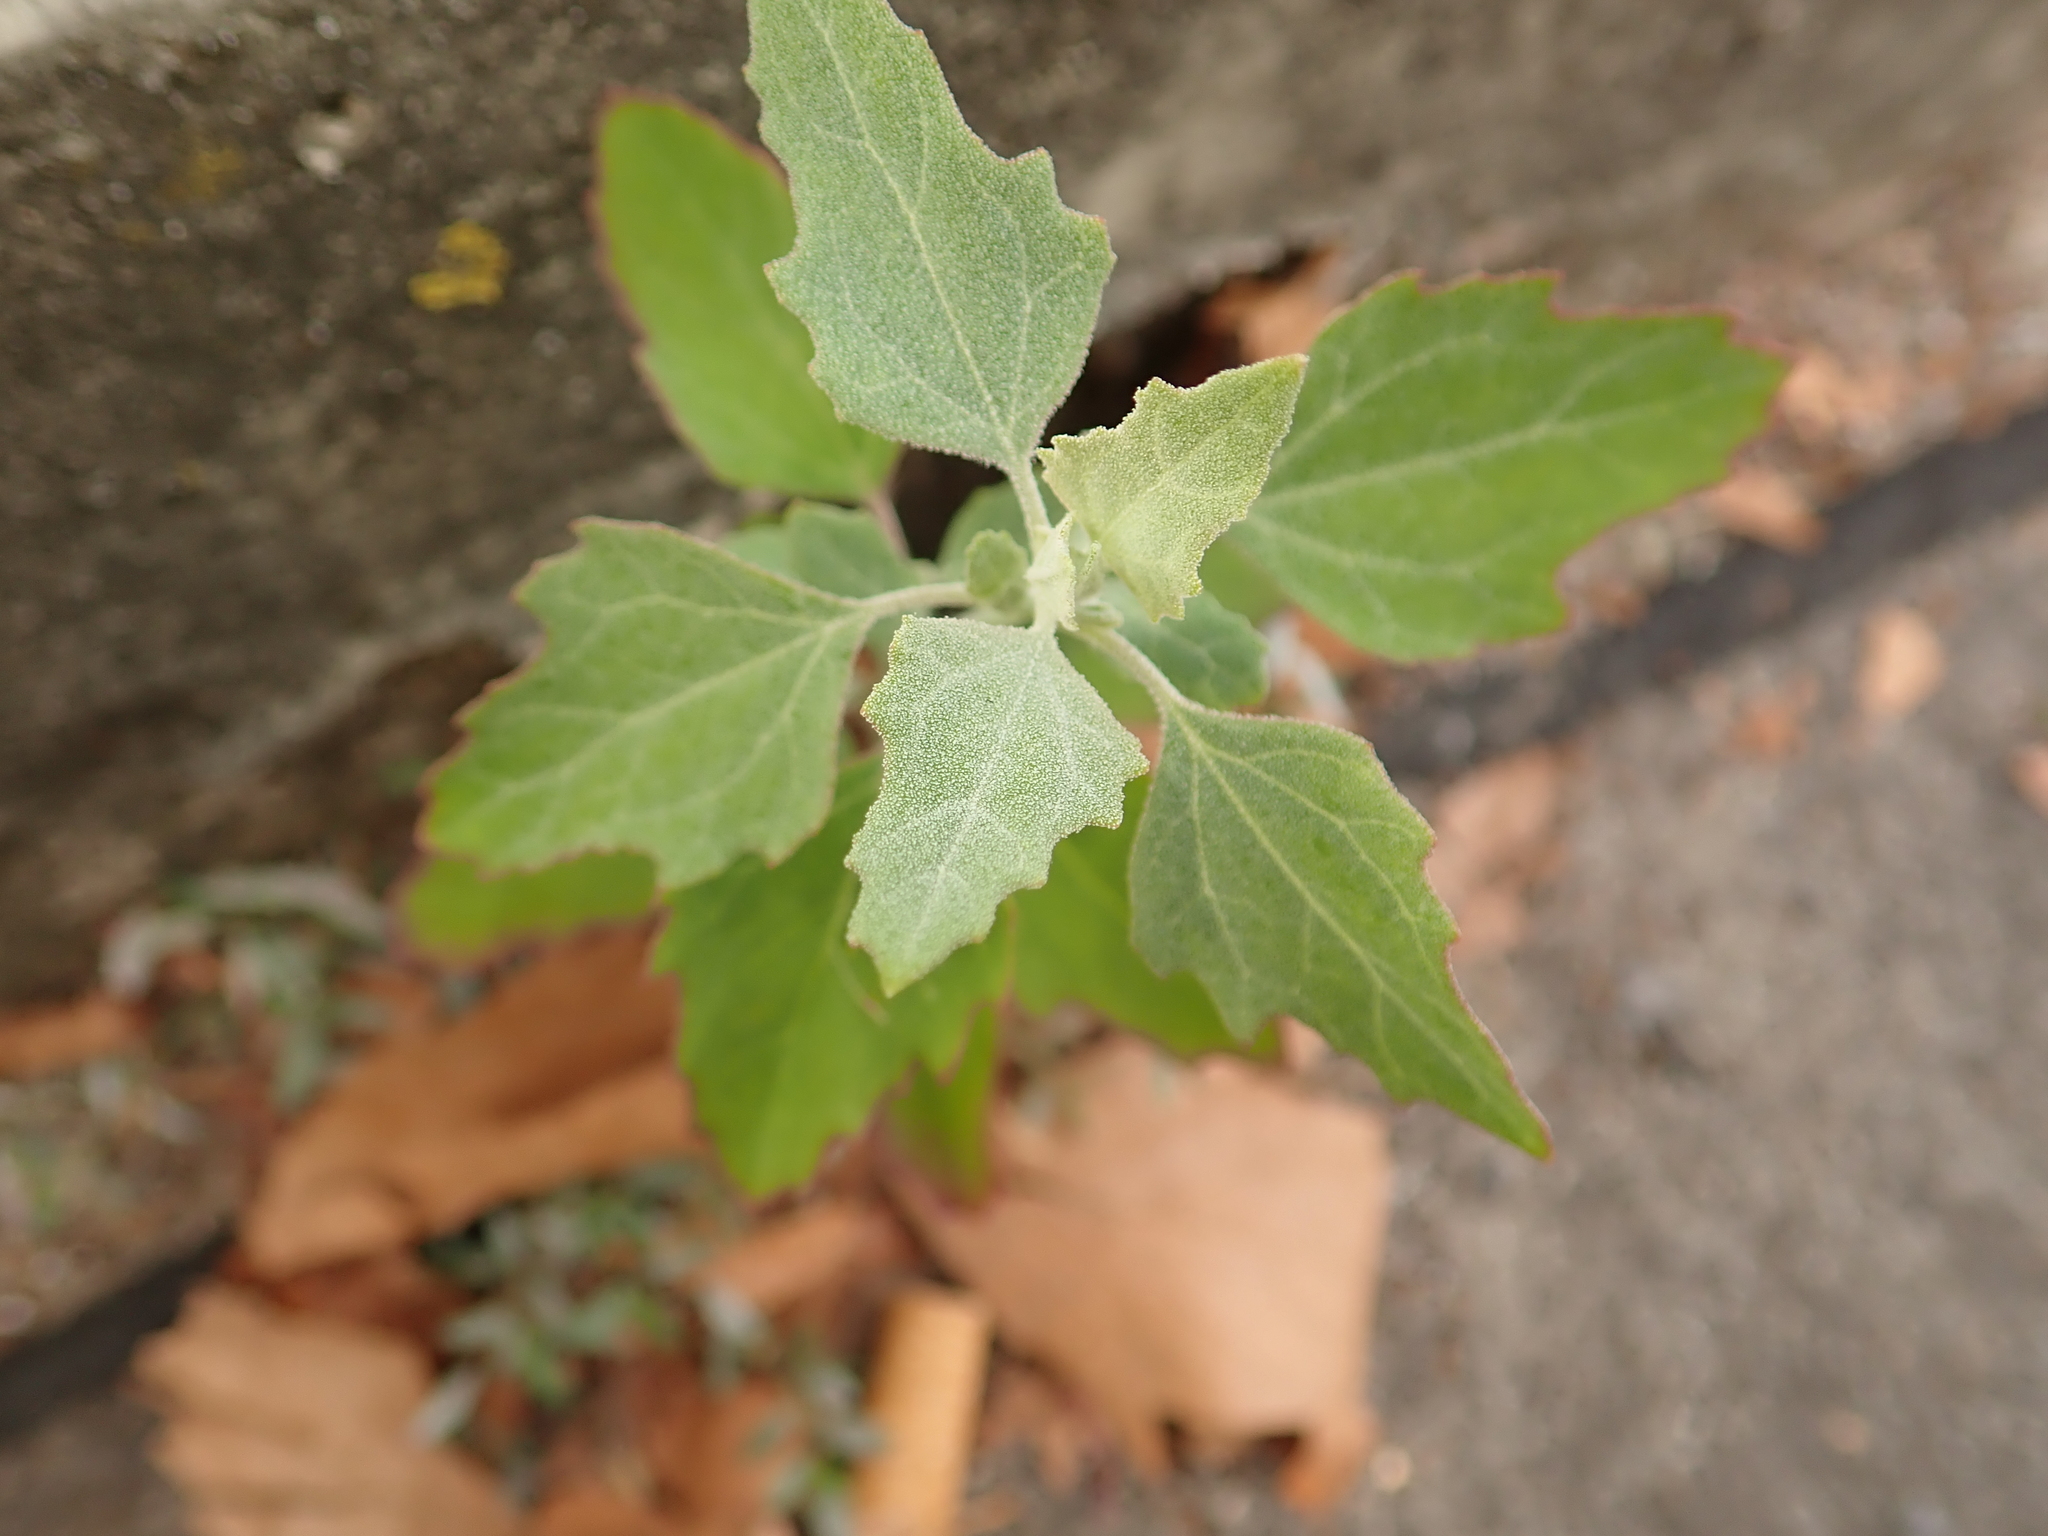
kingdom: Plantae
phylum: Tracheophyta
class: Magnoliopsida
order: Caryophyllales
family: Amaranthaceae
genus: Chenopodium
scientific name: Chenopodium album
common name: Fat-hen
